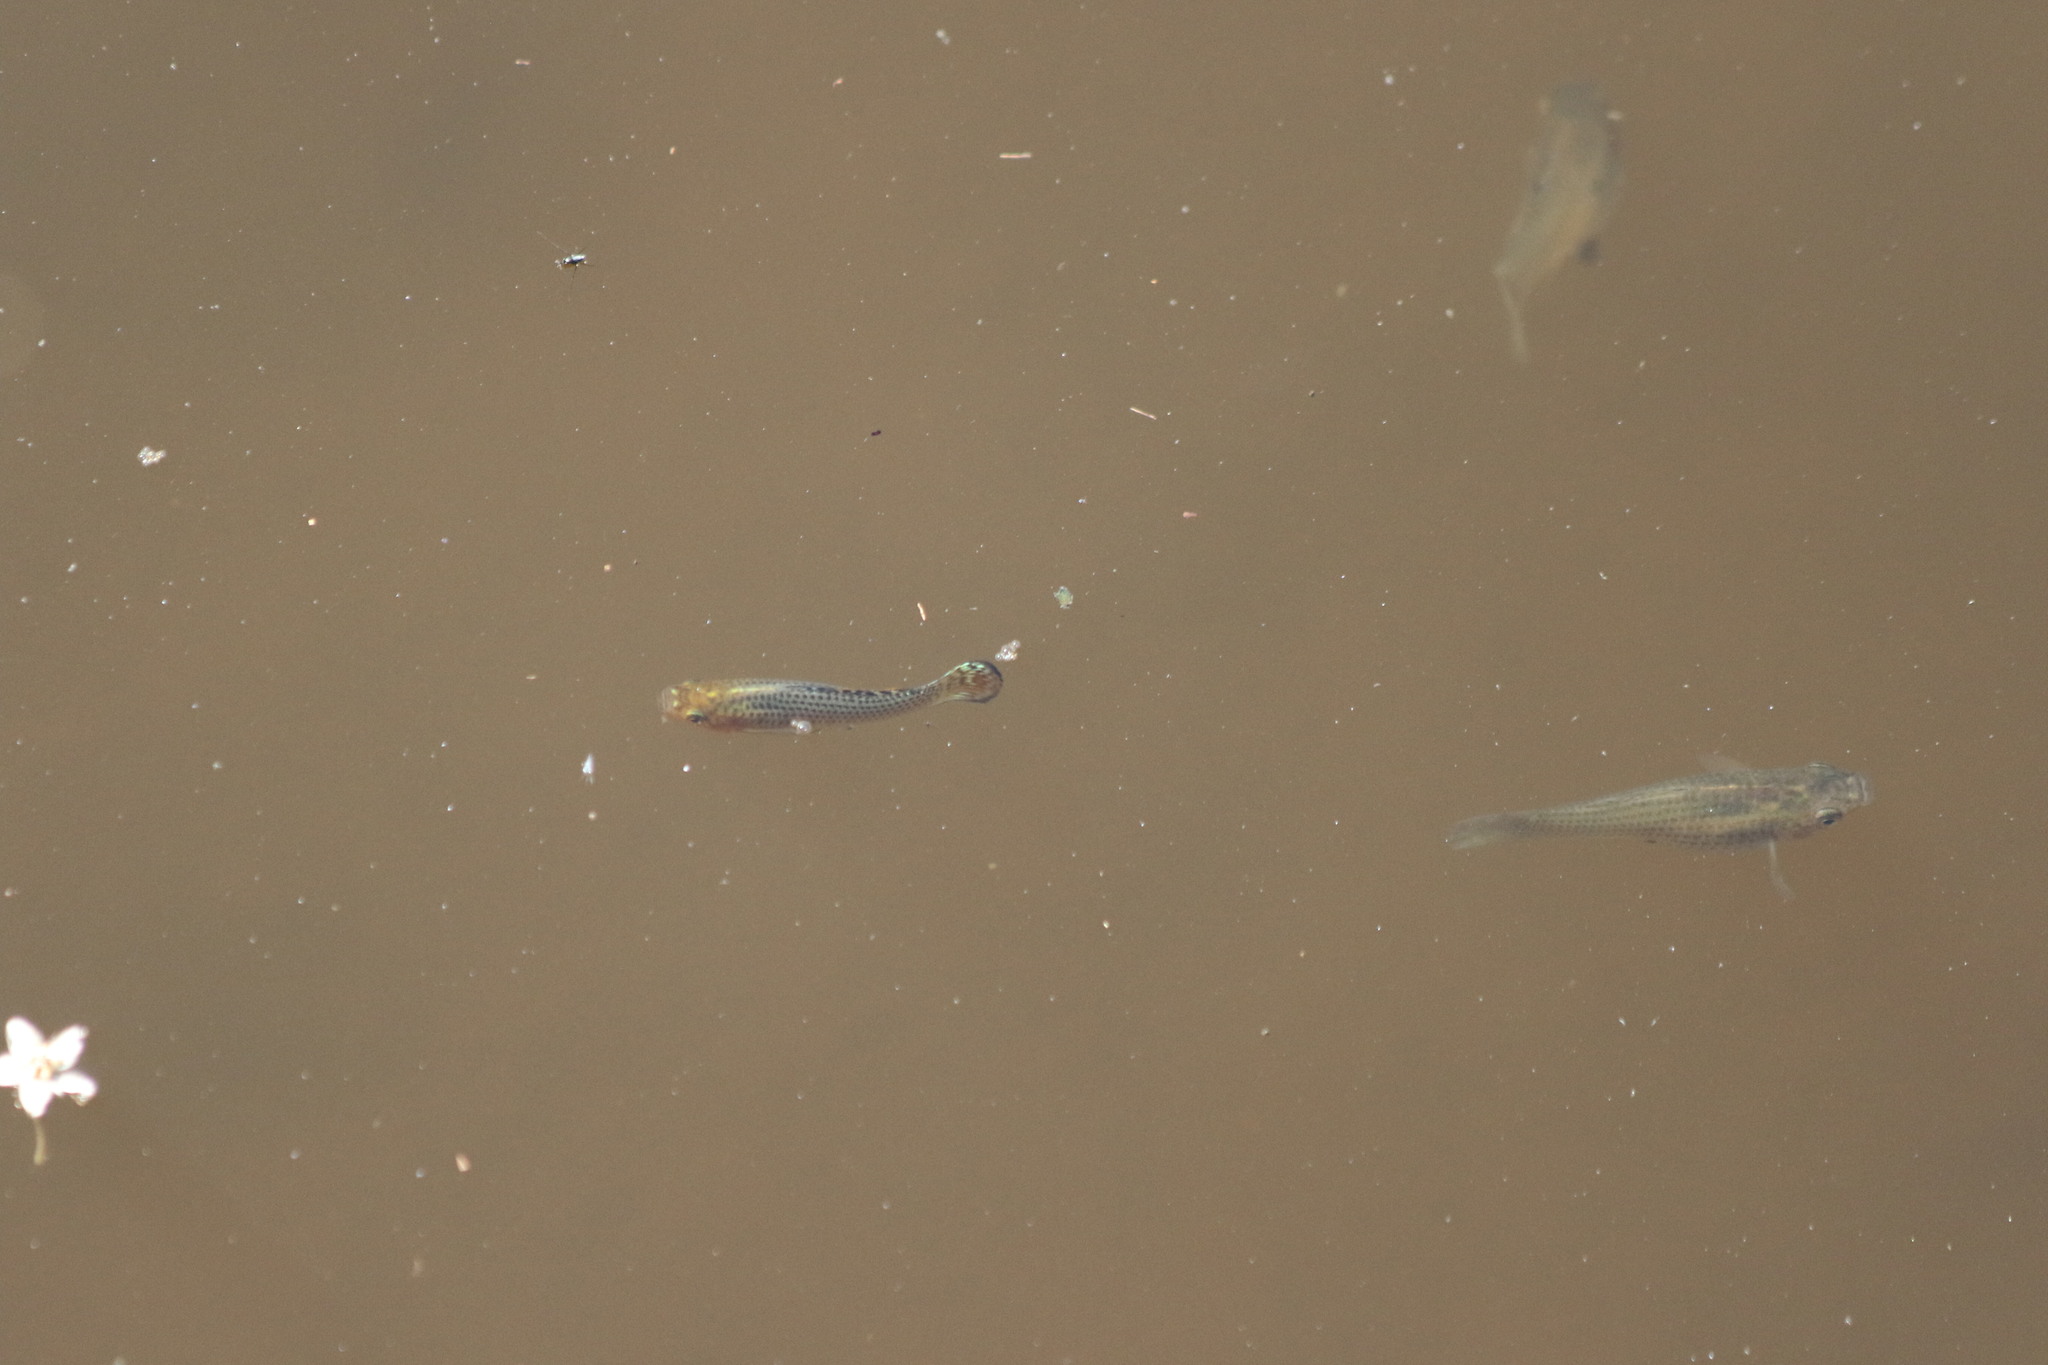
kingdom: Animalia
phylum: Chordata
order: Cyprinodontiformes
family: Poeciliidae
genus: Poecilia
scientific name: Poecilia latipinna
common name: Sailfin molly
